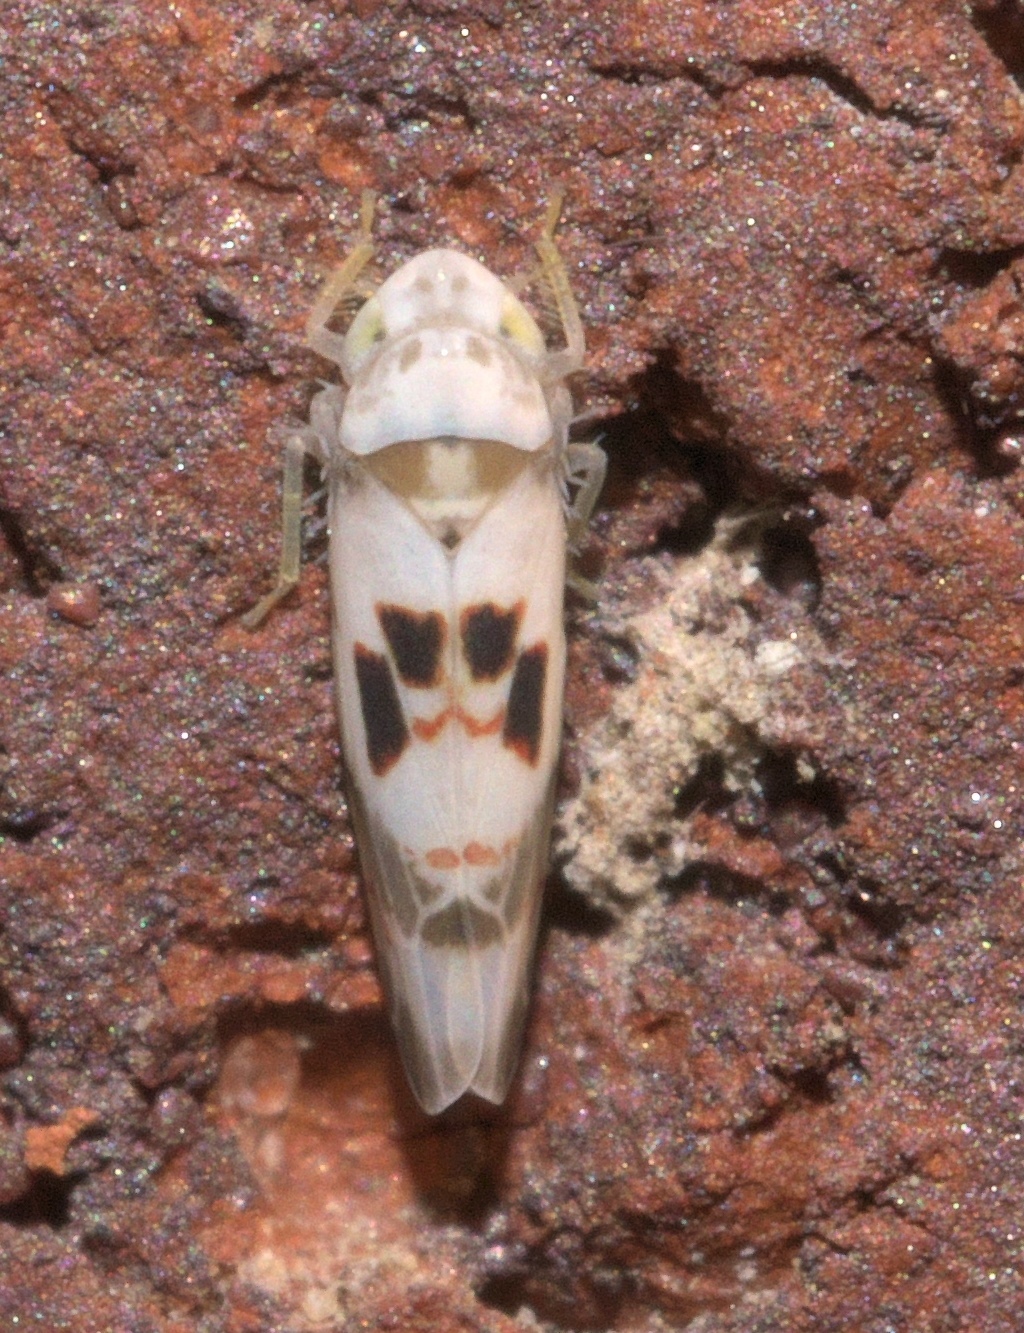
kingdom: Animalia
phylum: Arthropoda
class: Insecta
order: Hemiptera
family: Cicadellidae
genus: Eratoneura
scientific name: Eratoneura hymettana
